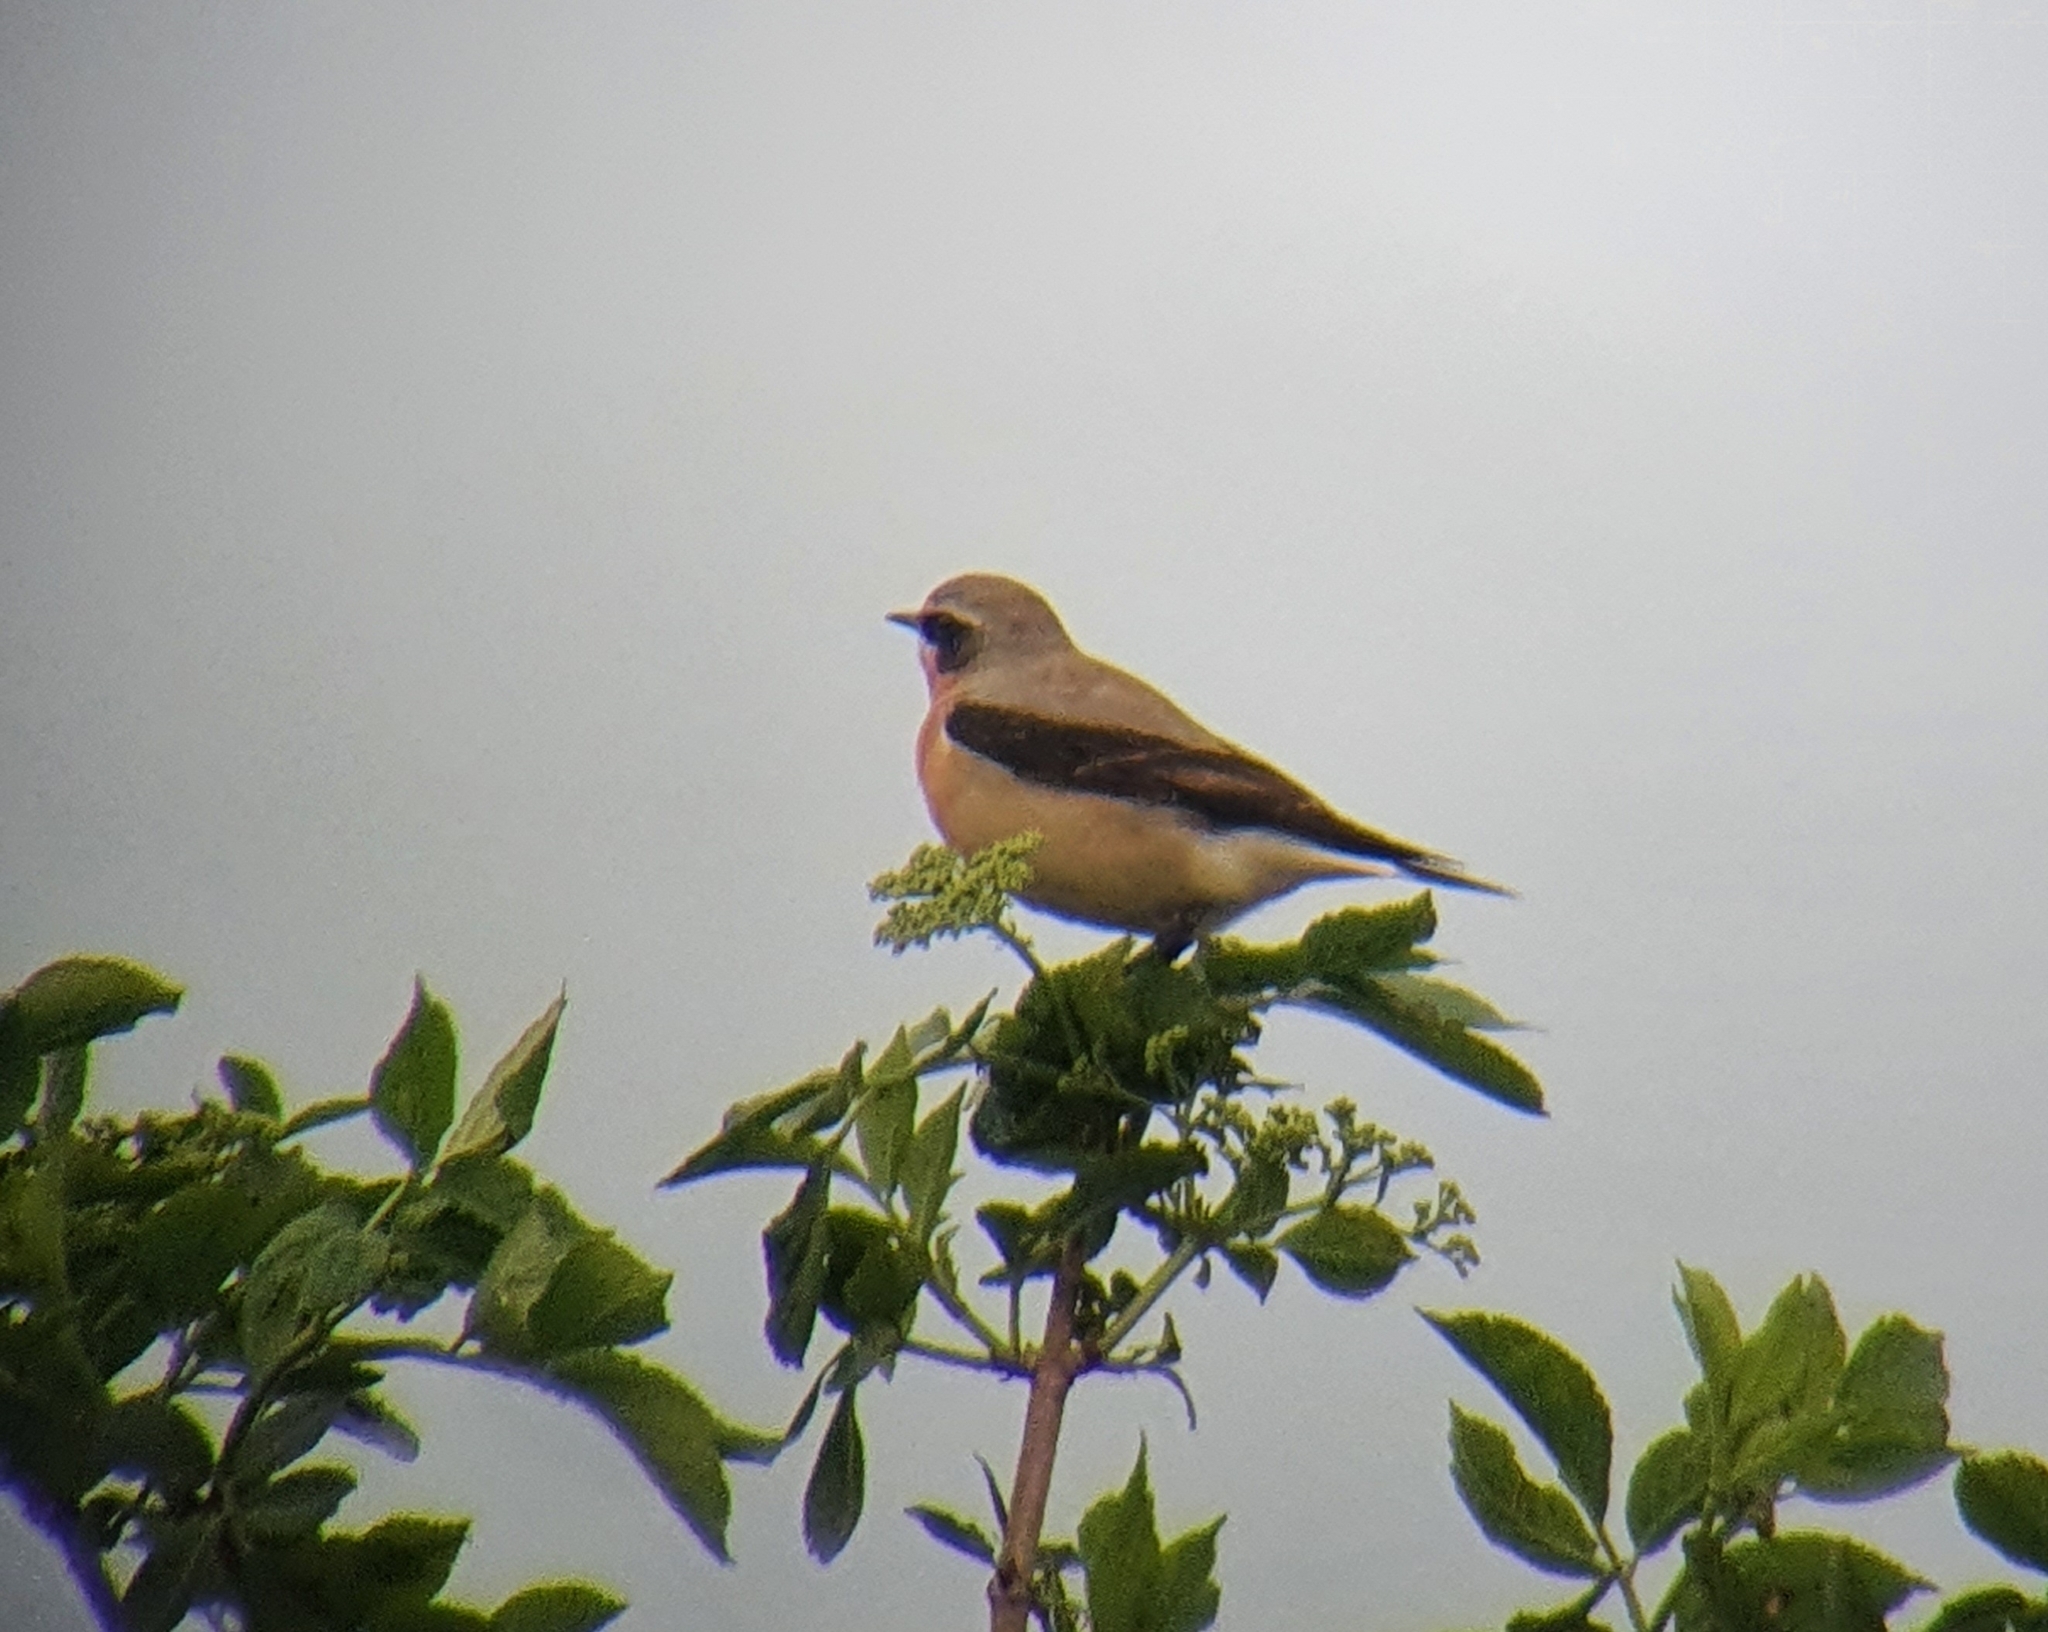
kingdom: Animalia
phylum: Chordata
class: Aves
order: Passeriformes
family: Muscicapidae
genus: Oenanthe
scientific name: Oenanthe oenanthe
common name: Northern wheatear
